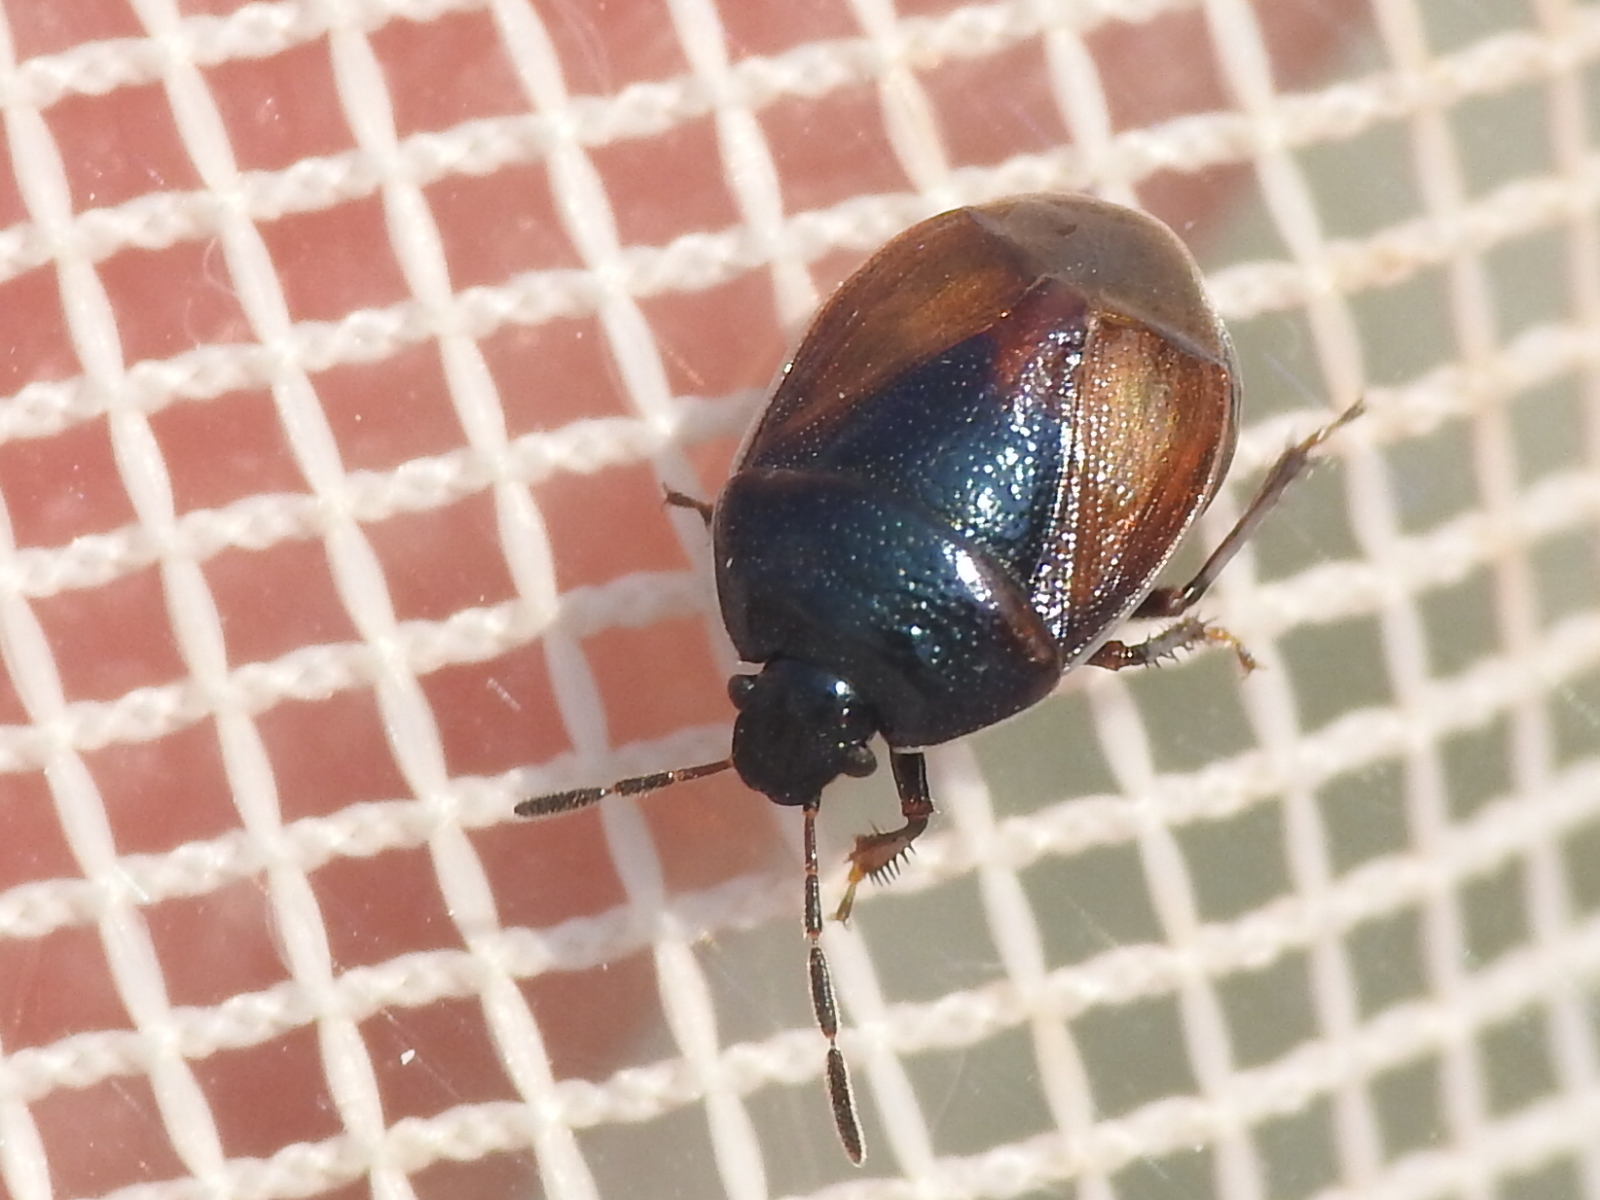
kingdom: Animalia
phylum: Arthropoda
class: Insecta
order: Hemiptera
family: Cydnidae
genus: Sehirus
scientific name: Sehirus cinctus
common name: White-margined burrower bug
